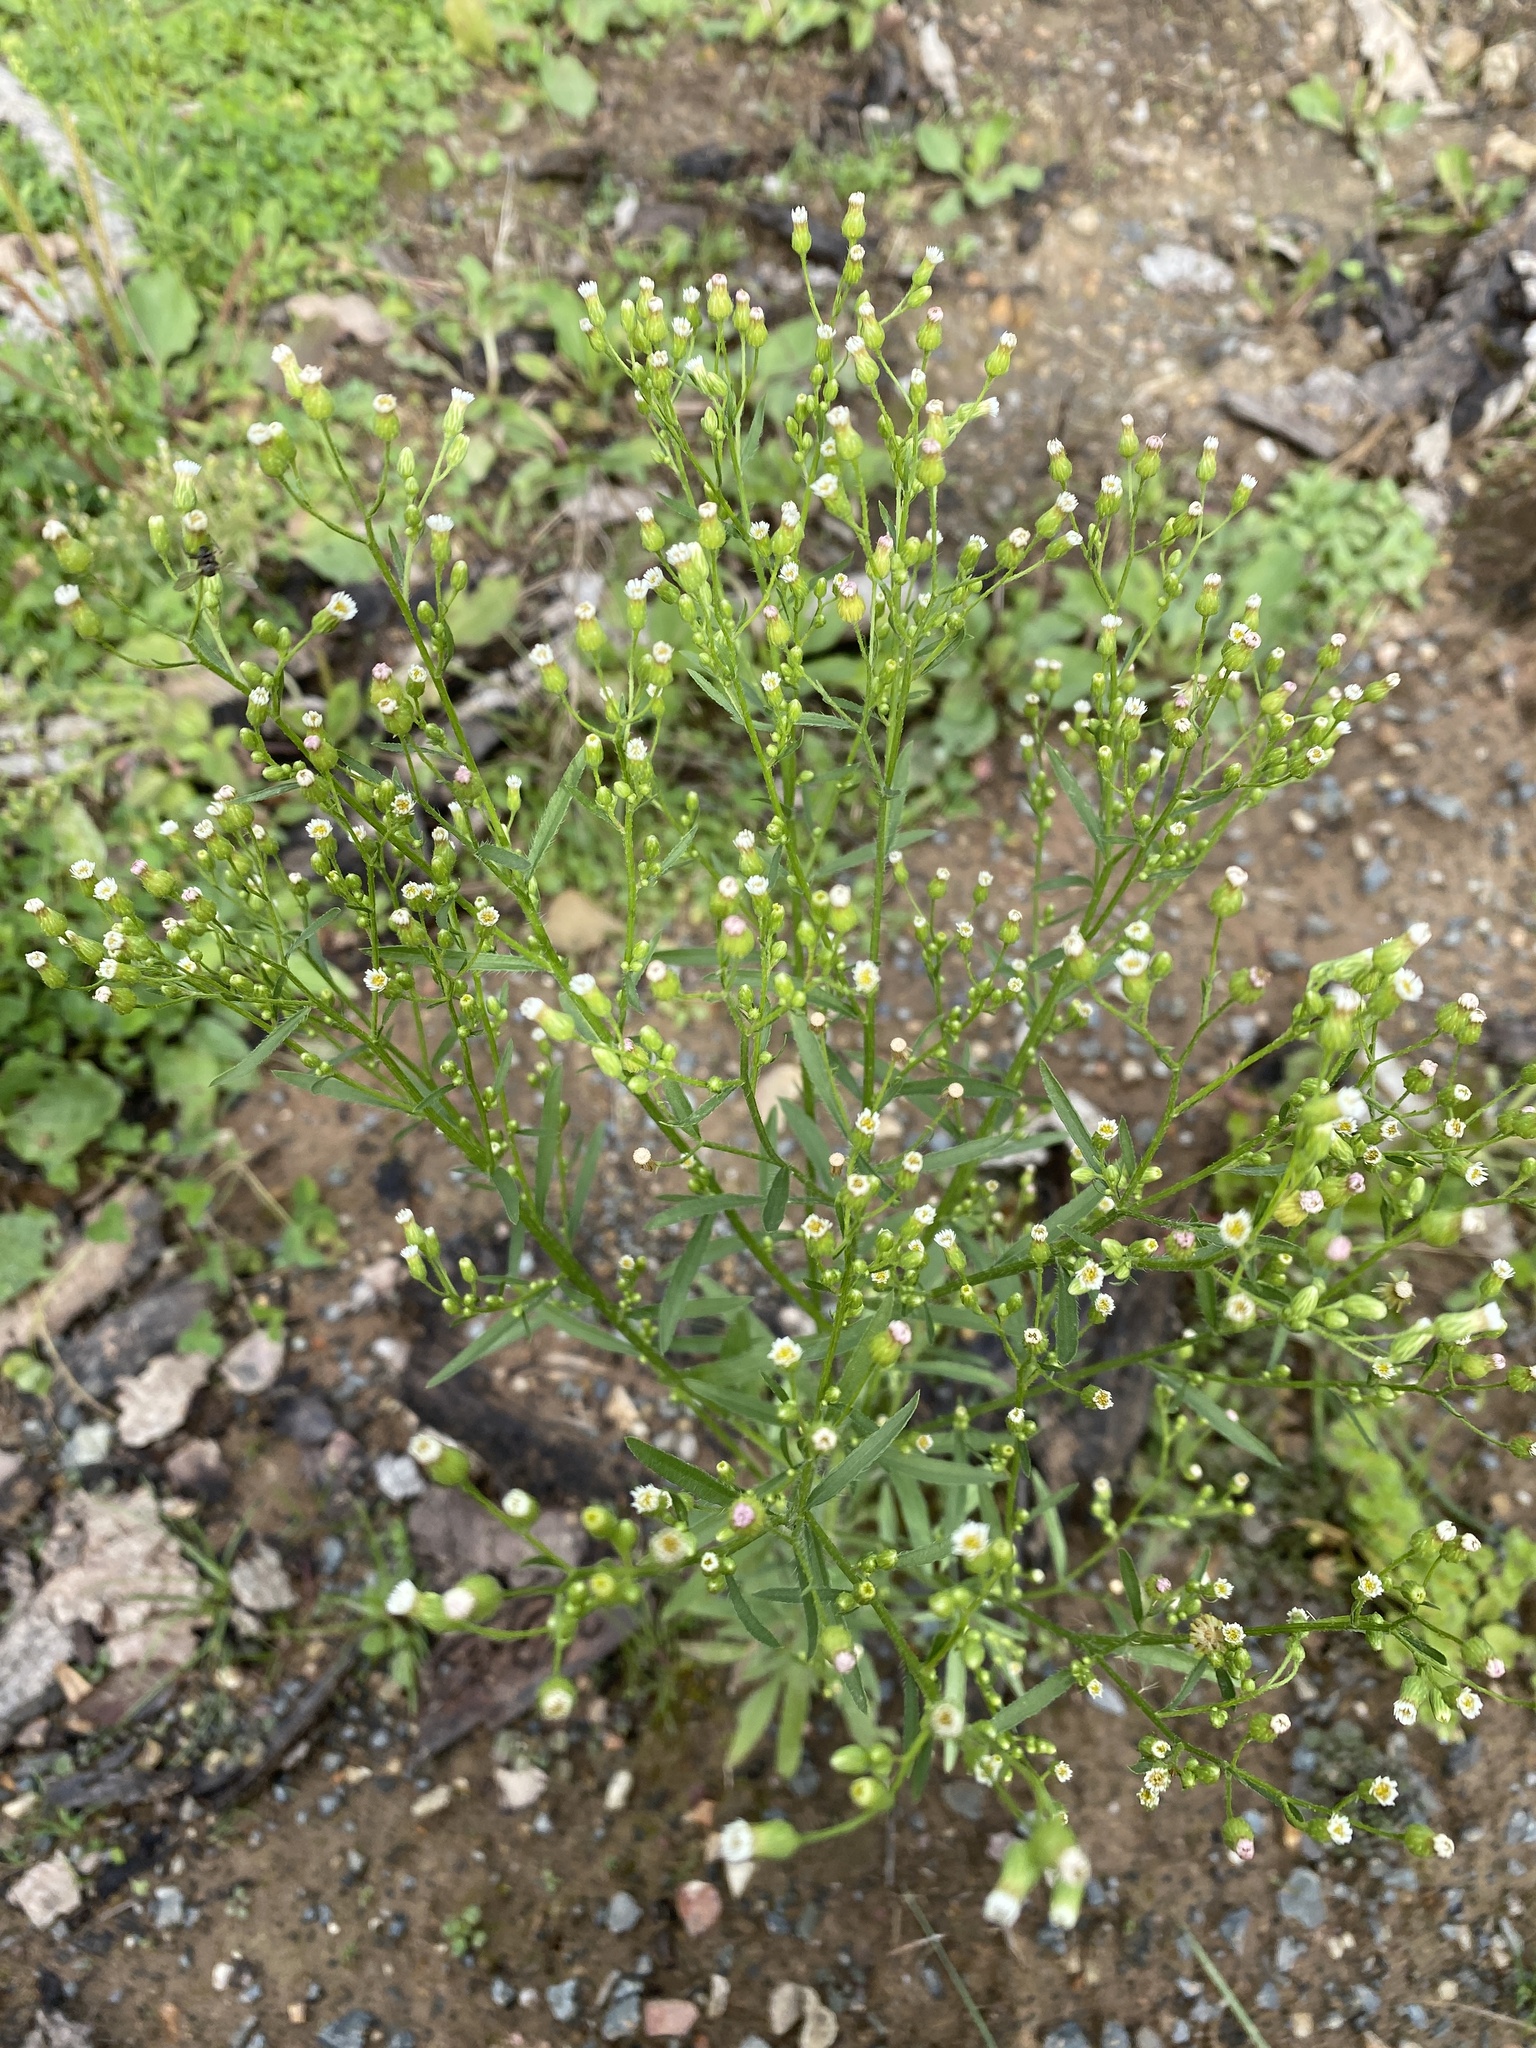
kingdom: Plantae
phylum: Tracheophyta
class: Magnoliopsida
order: Asterales
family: Asteraceae
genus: Erigeron
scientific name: Erigeron canadensis
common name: Canadian fleabane
